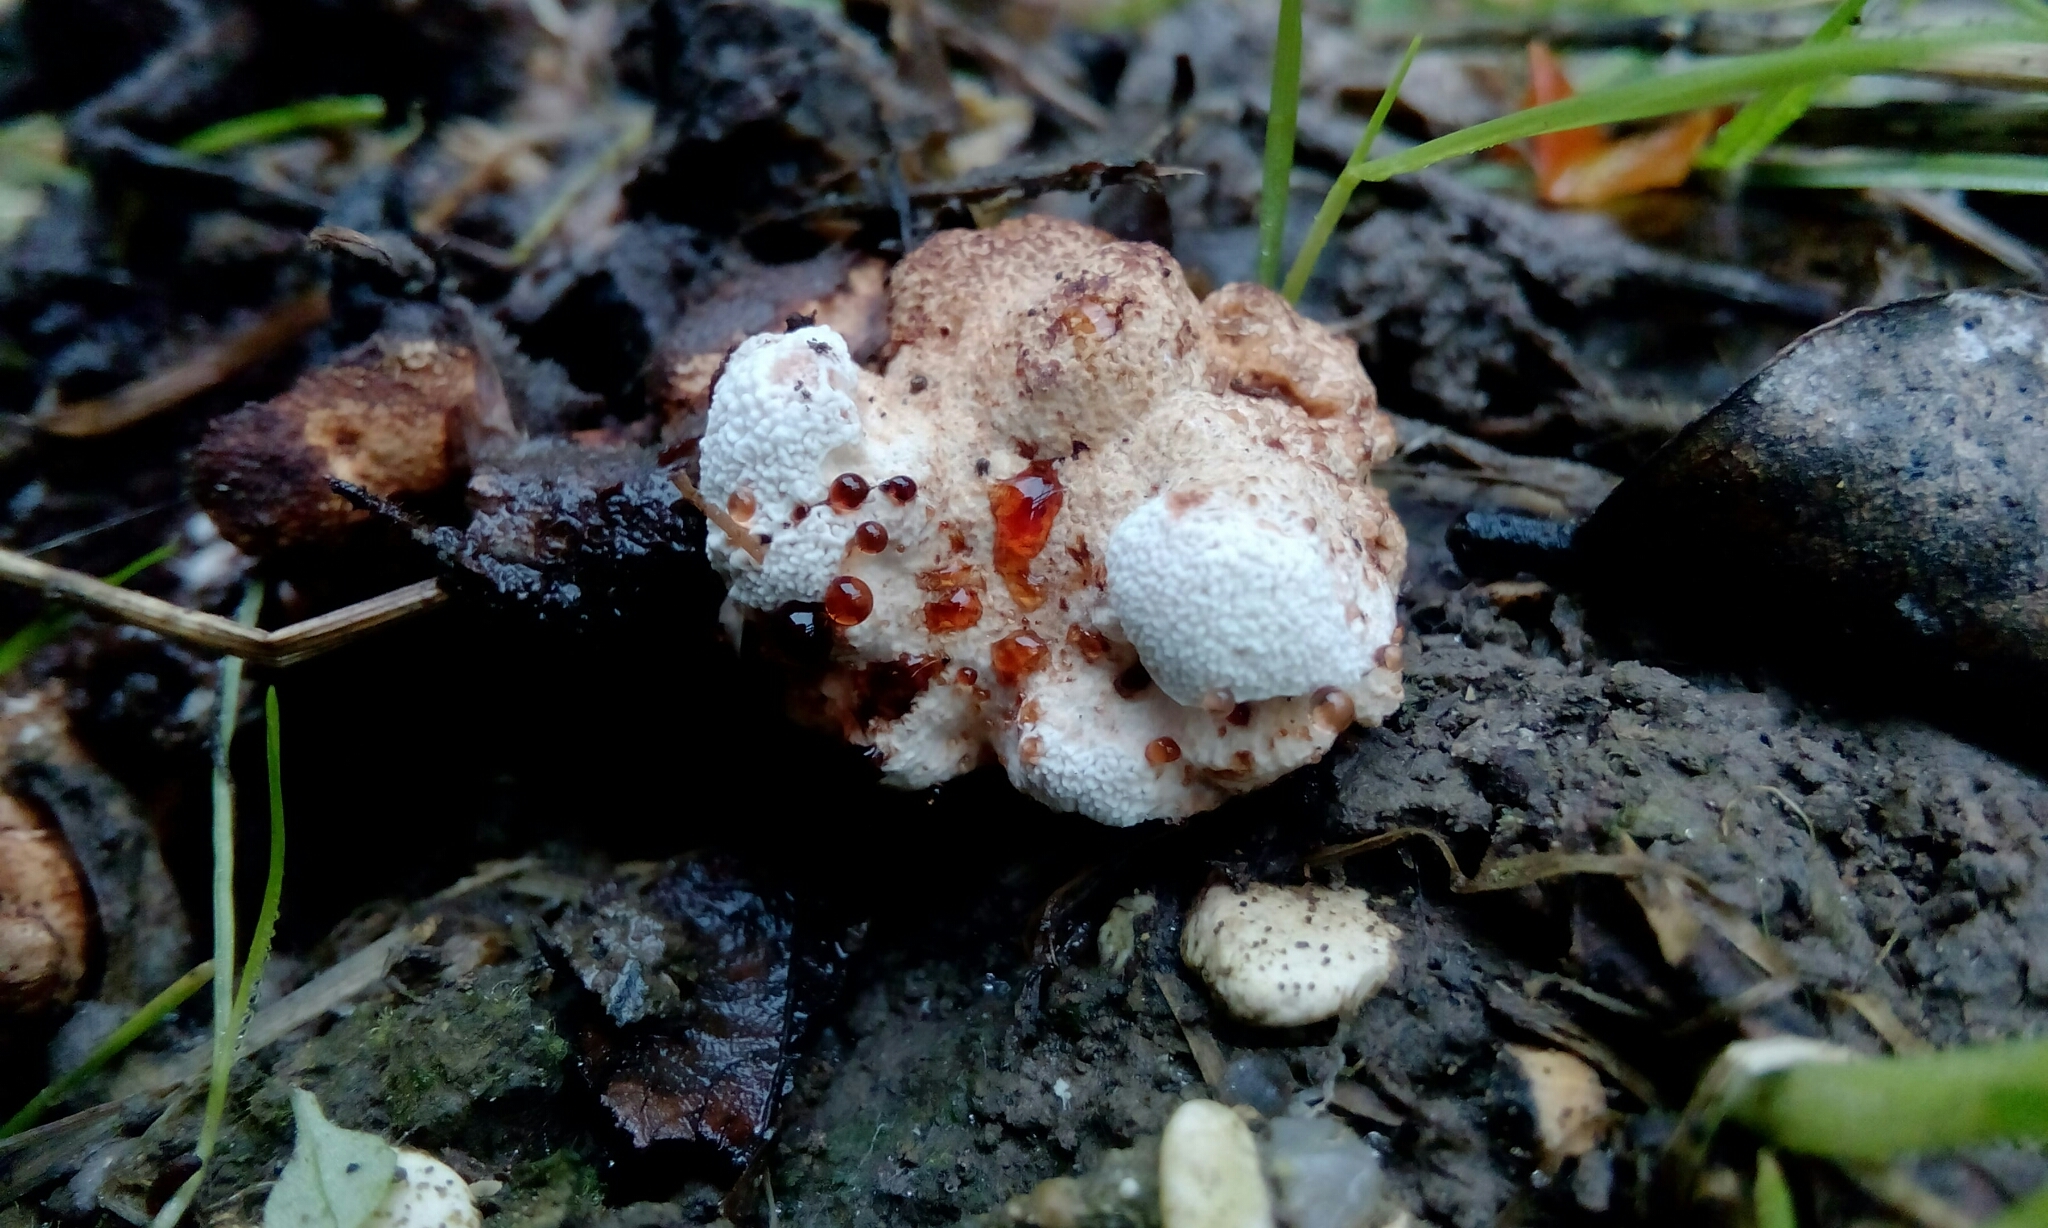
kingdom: Fungi
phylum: Basidiomycota
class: Agaricomycetes
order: Polyporales
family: Podoscyphaceae
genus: Abortiporus
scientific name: Abortiporus biennis
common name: Blushing rosette
